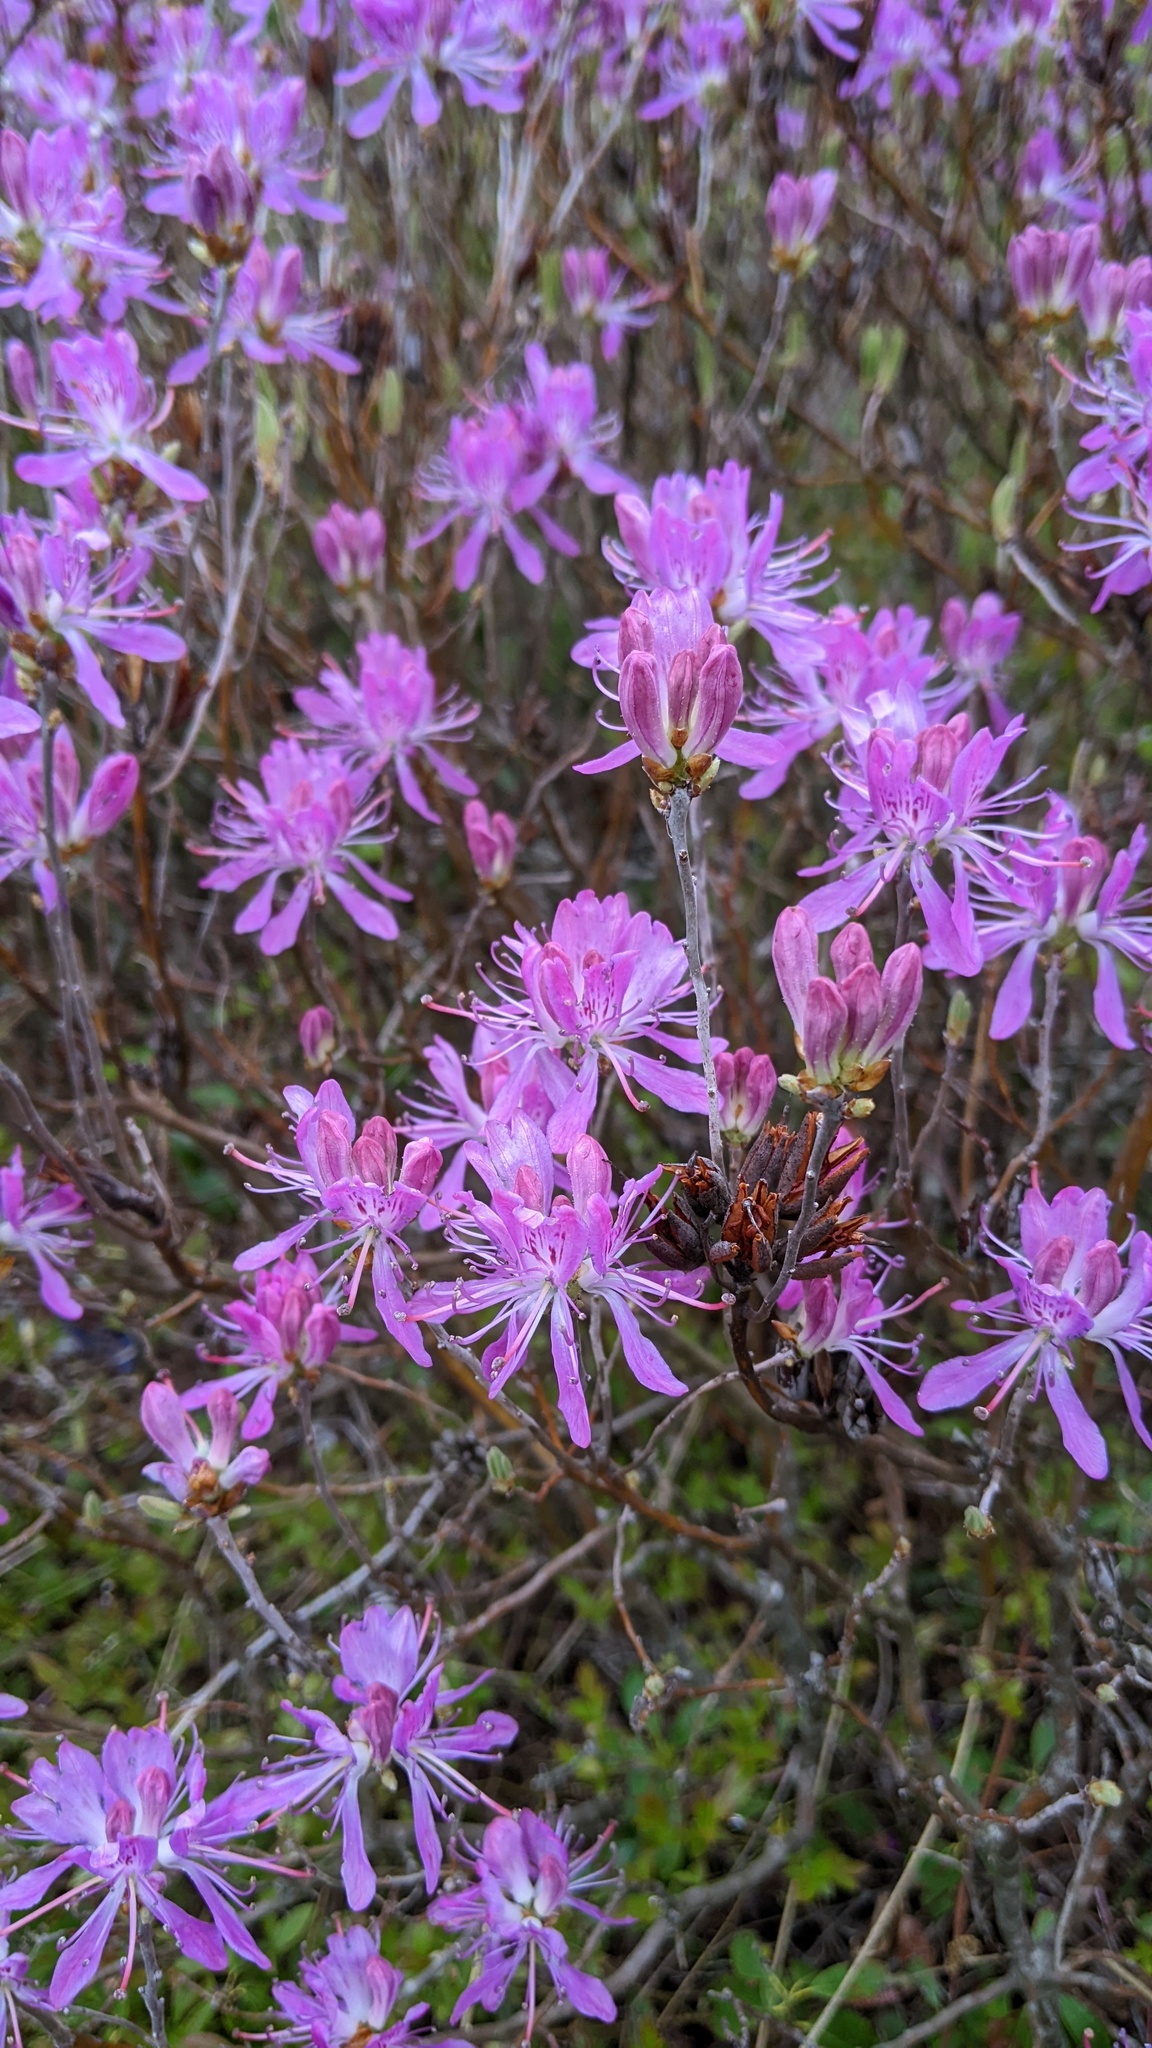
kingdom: Plantae
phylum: Tracheophyta
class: Magnoliopsida
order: Ericales
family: Ericaceae
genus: Rhododendron
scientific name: Rhododendron canadense
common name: Rhodora
